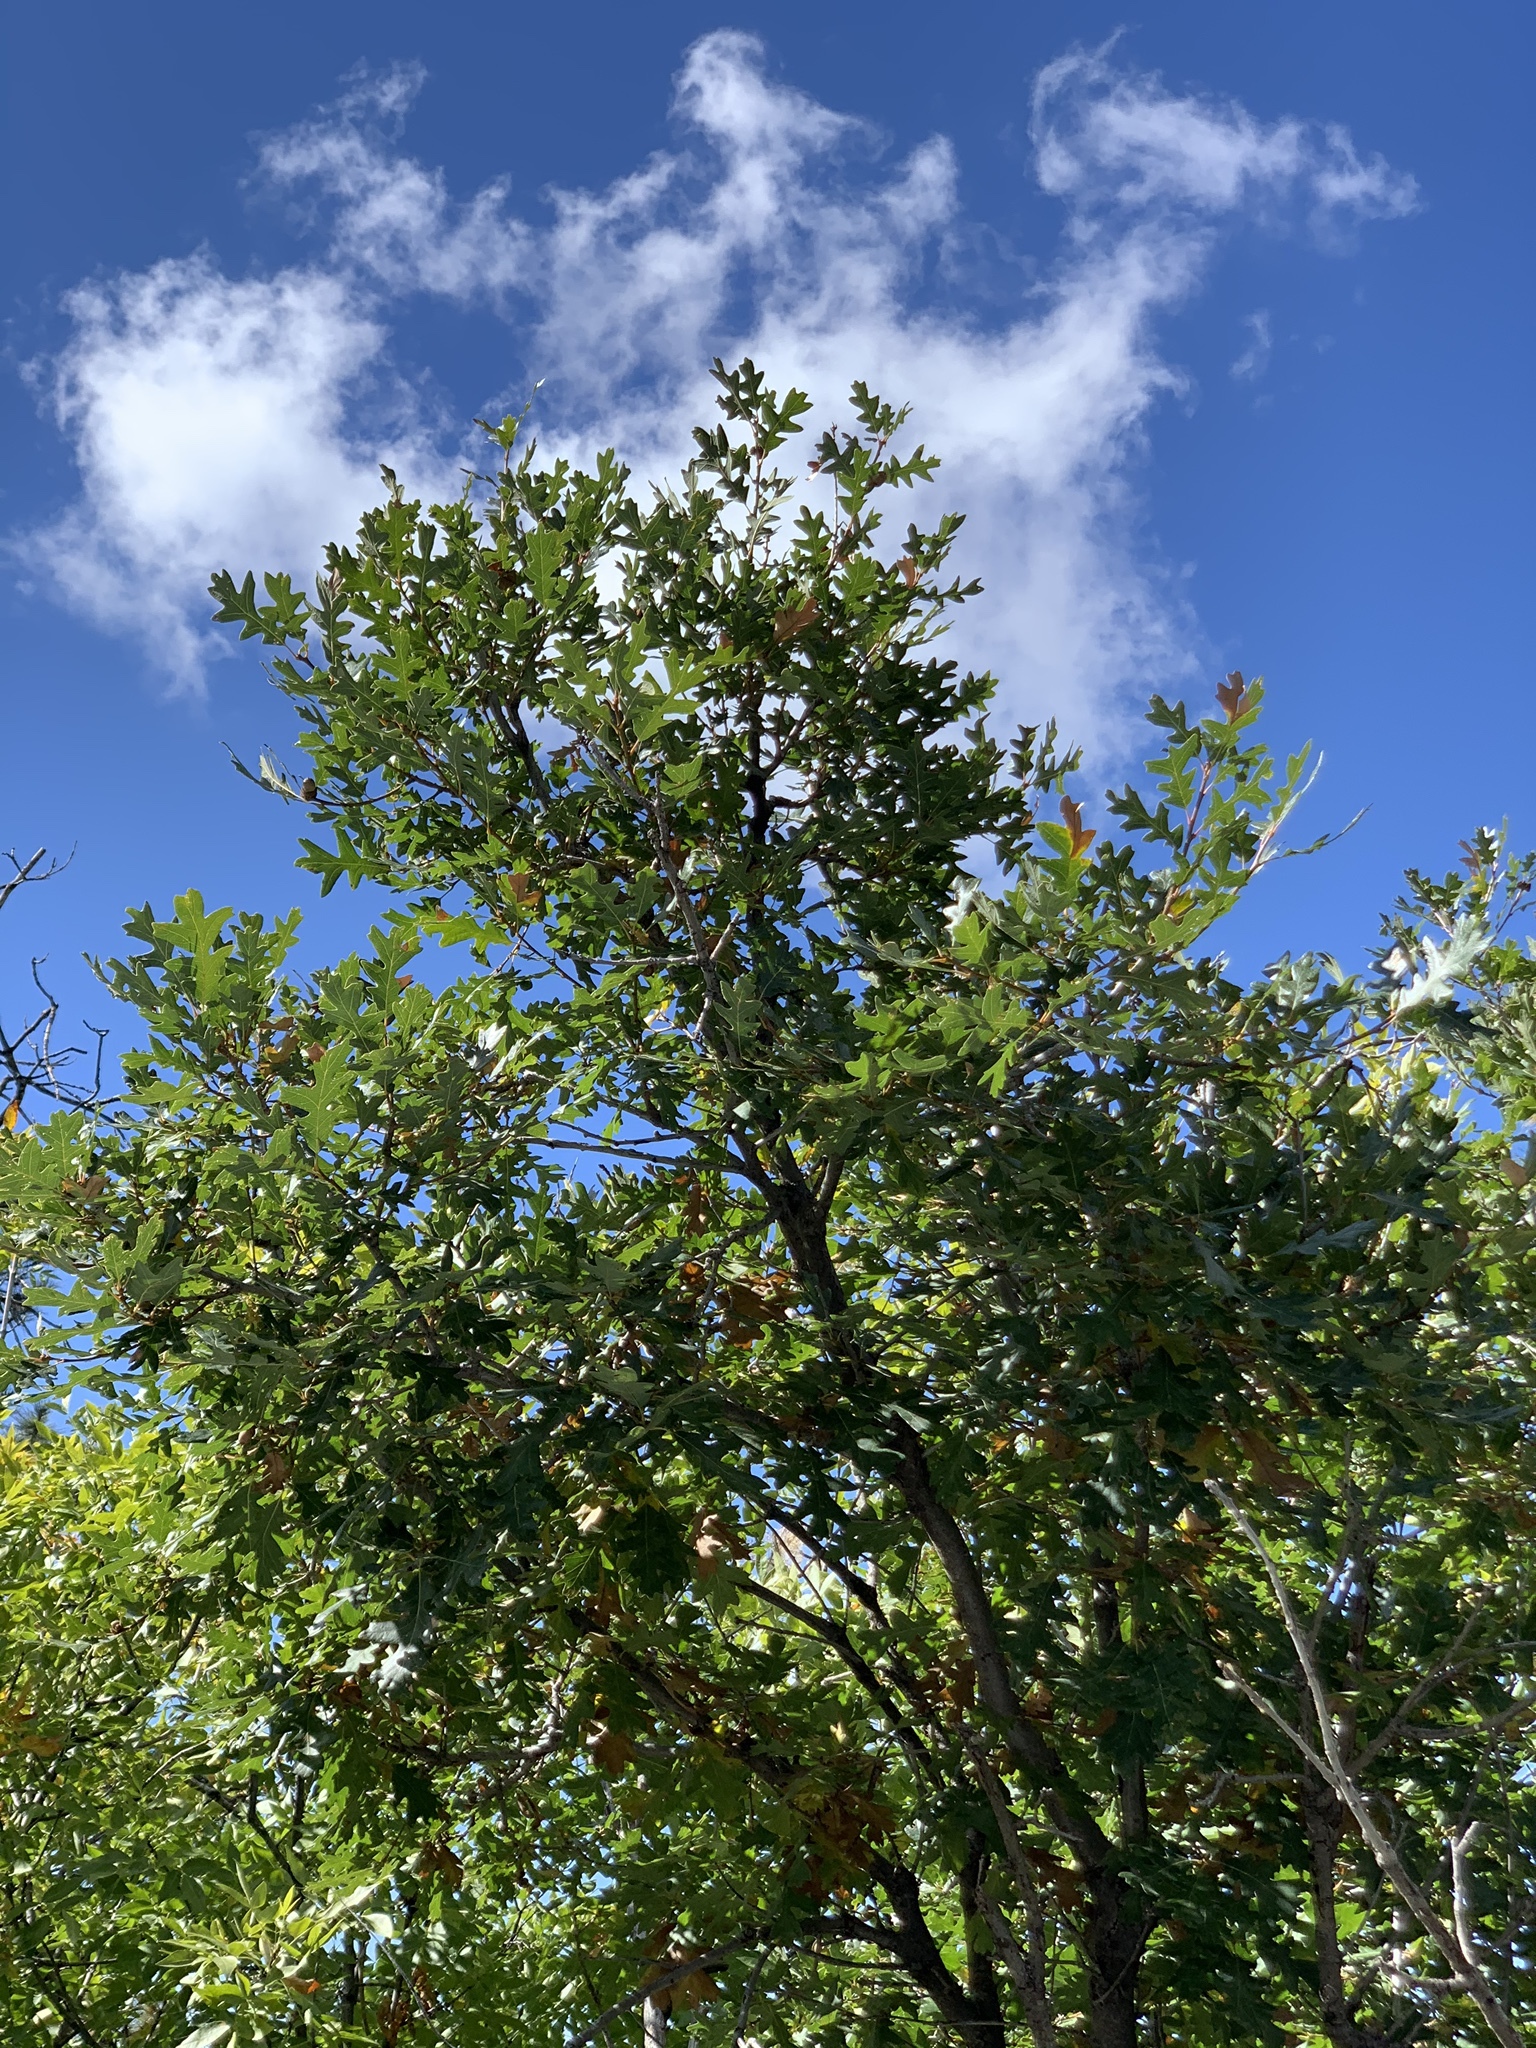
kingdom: Plantae
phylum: Tracheophyta
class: Magnoliopsida
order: Fagales
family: Fagaceae
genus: Quercus
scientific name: Quercus gambelii
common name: Gambel oak
